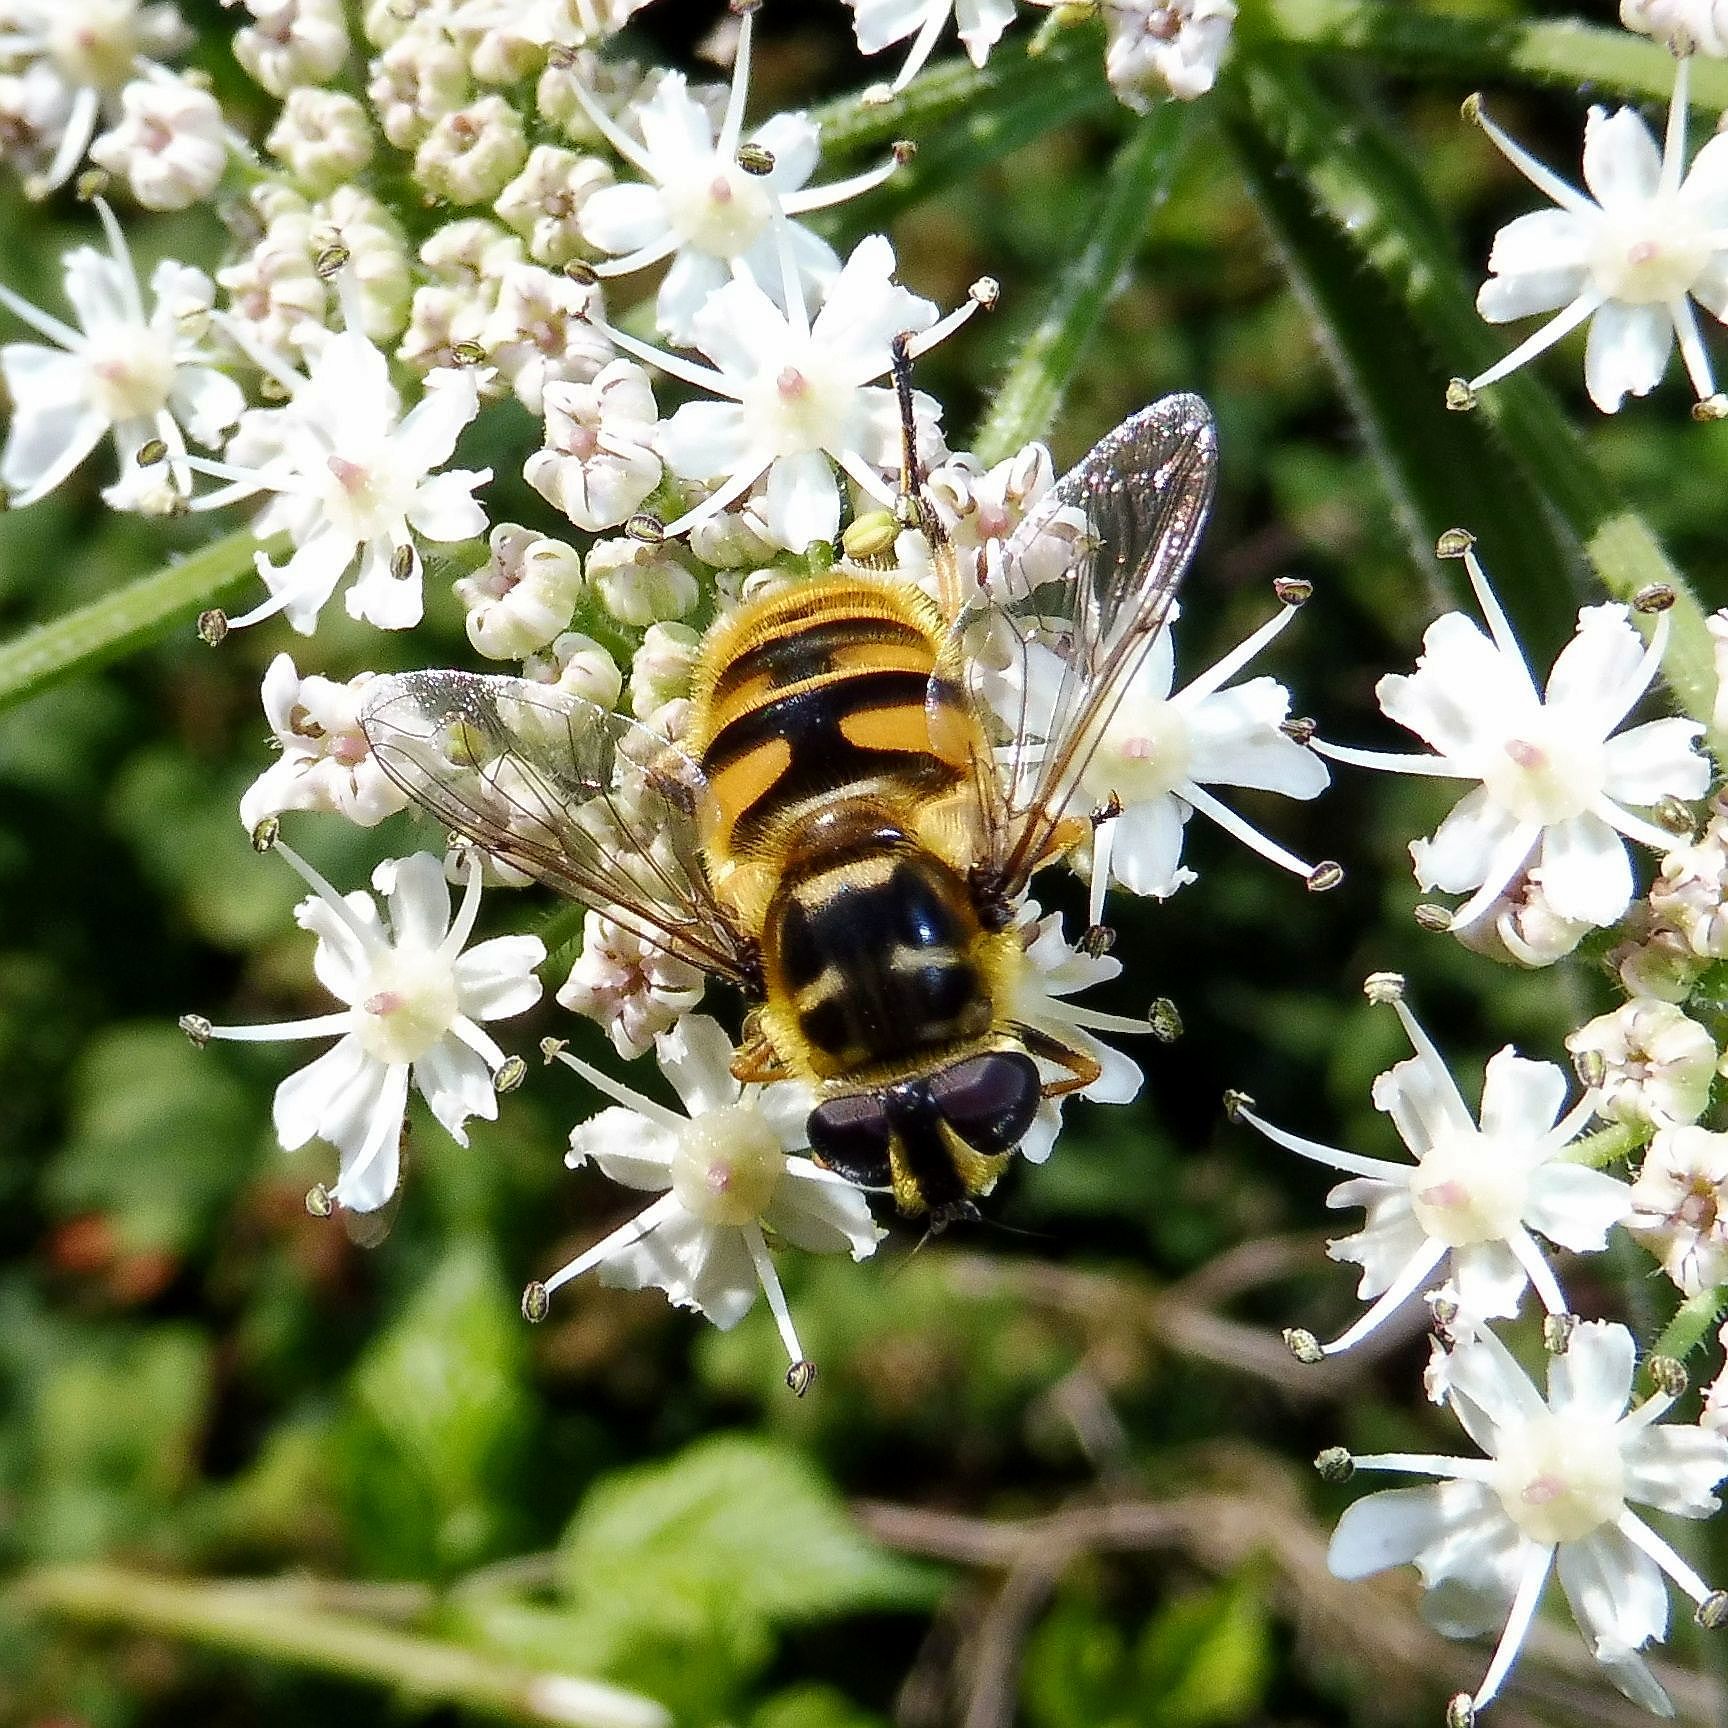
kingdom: Animalia
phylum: Arthropoda
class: Insecta
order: Diptera
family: Syrphidae
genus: Myathropa
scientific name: Myathropa florea
